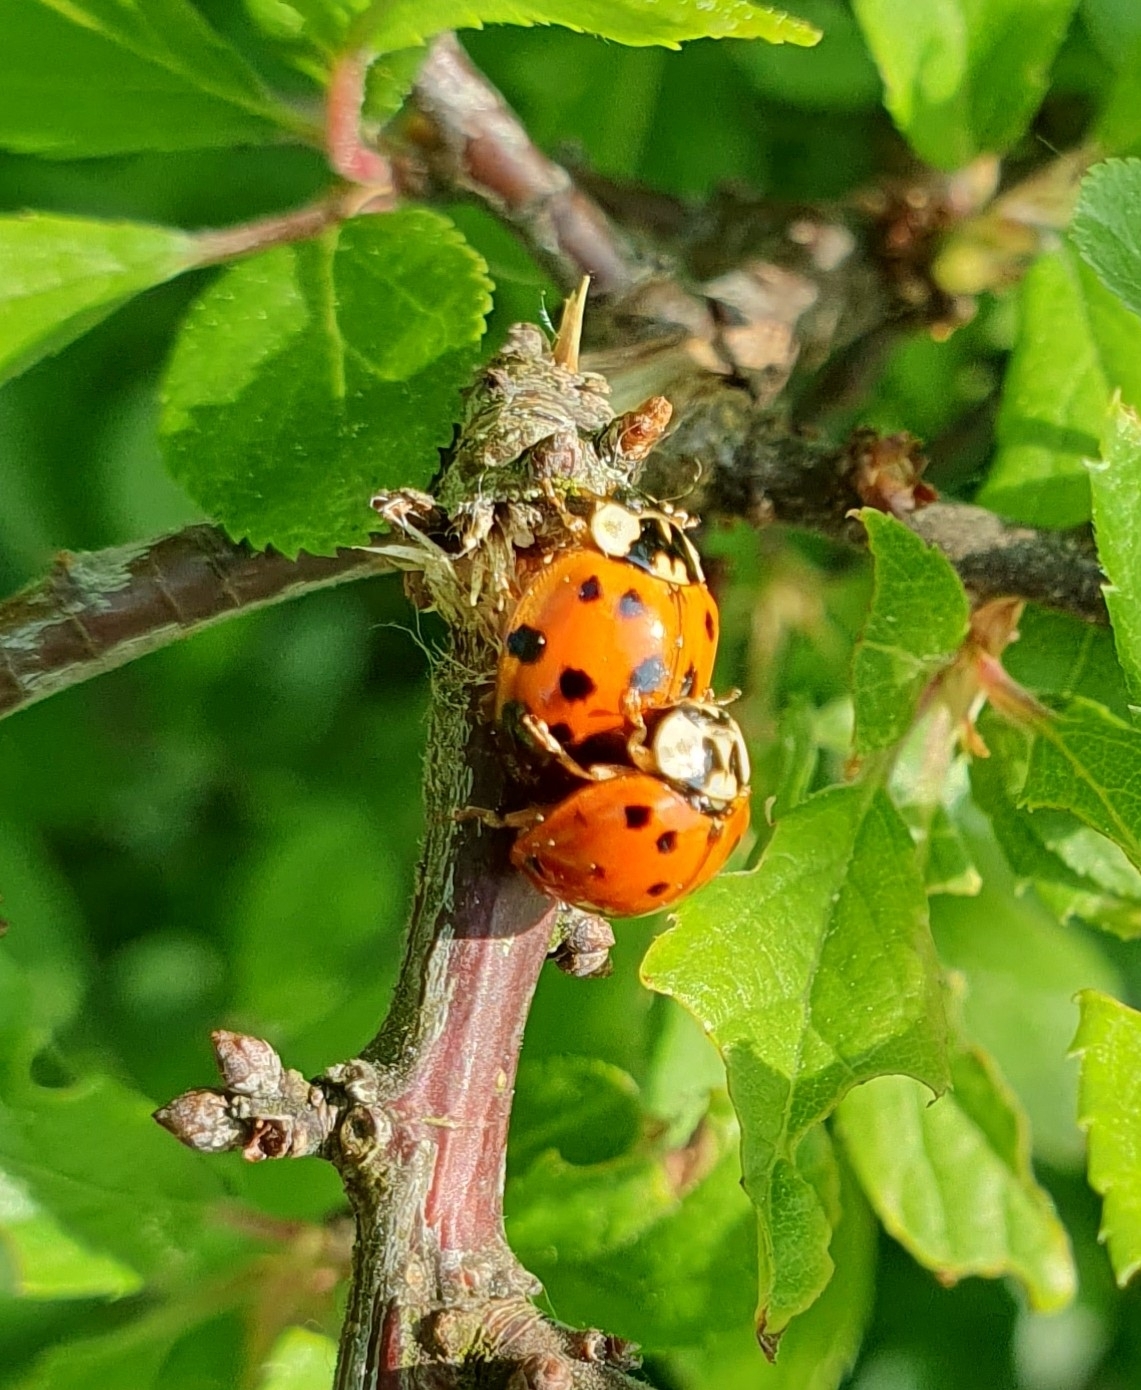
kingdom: Animalia
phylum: Arthropoda
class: Insecta
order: Coleoptera
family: Coccinellidae
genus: Harmonia
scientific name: Harmonia axyridis
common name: Harlequin ladybird
